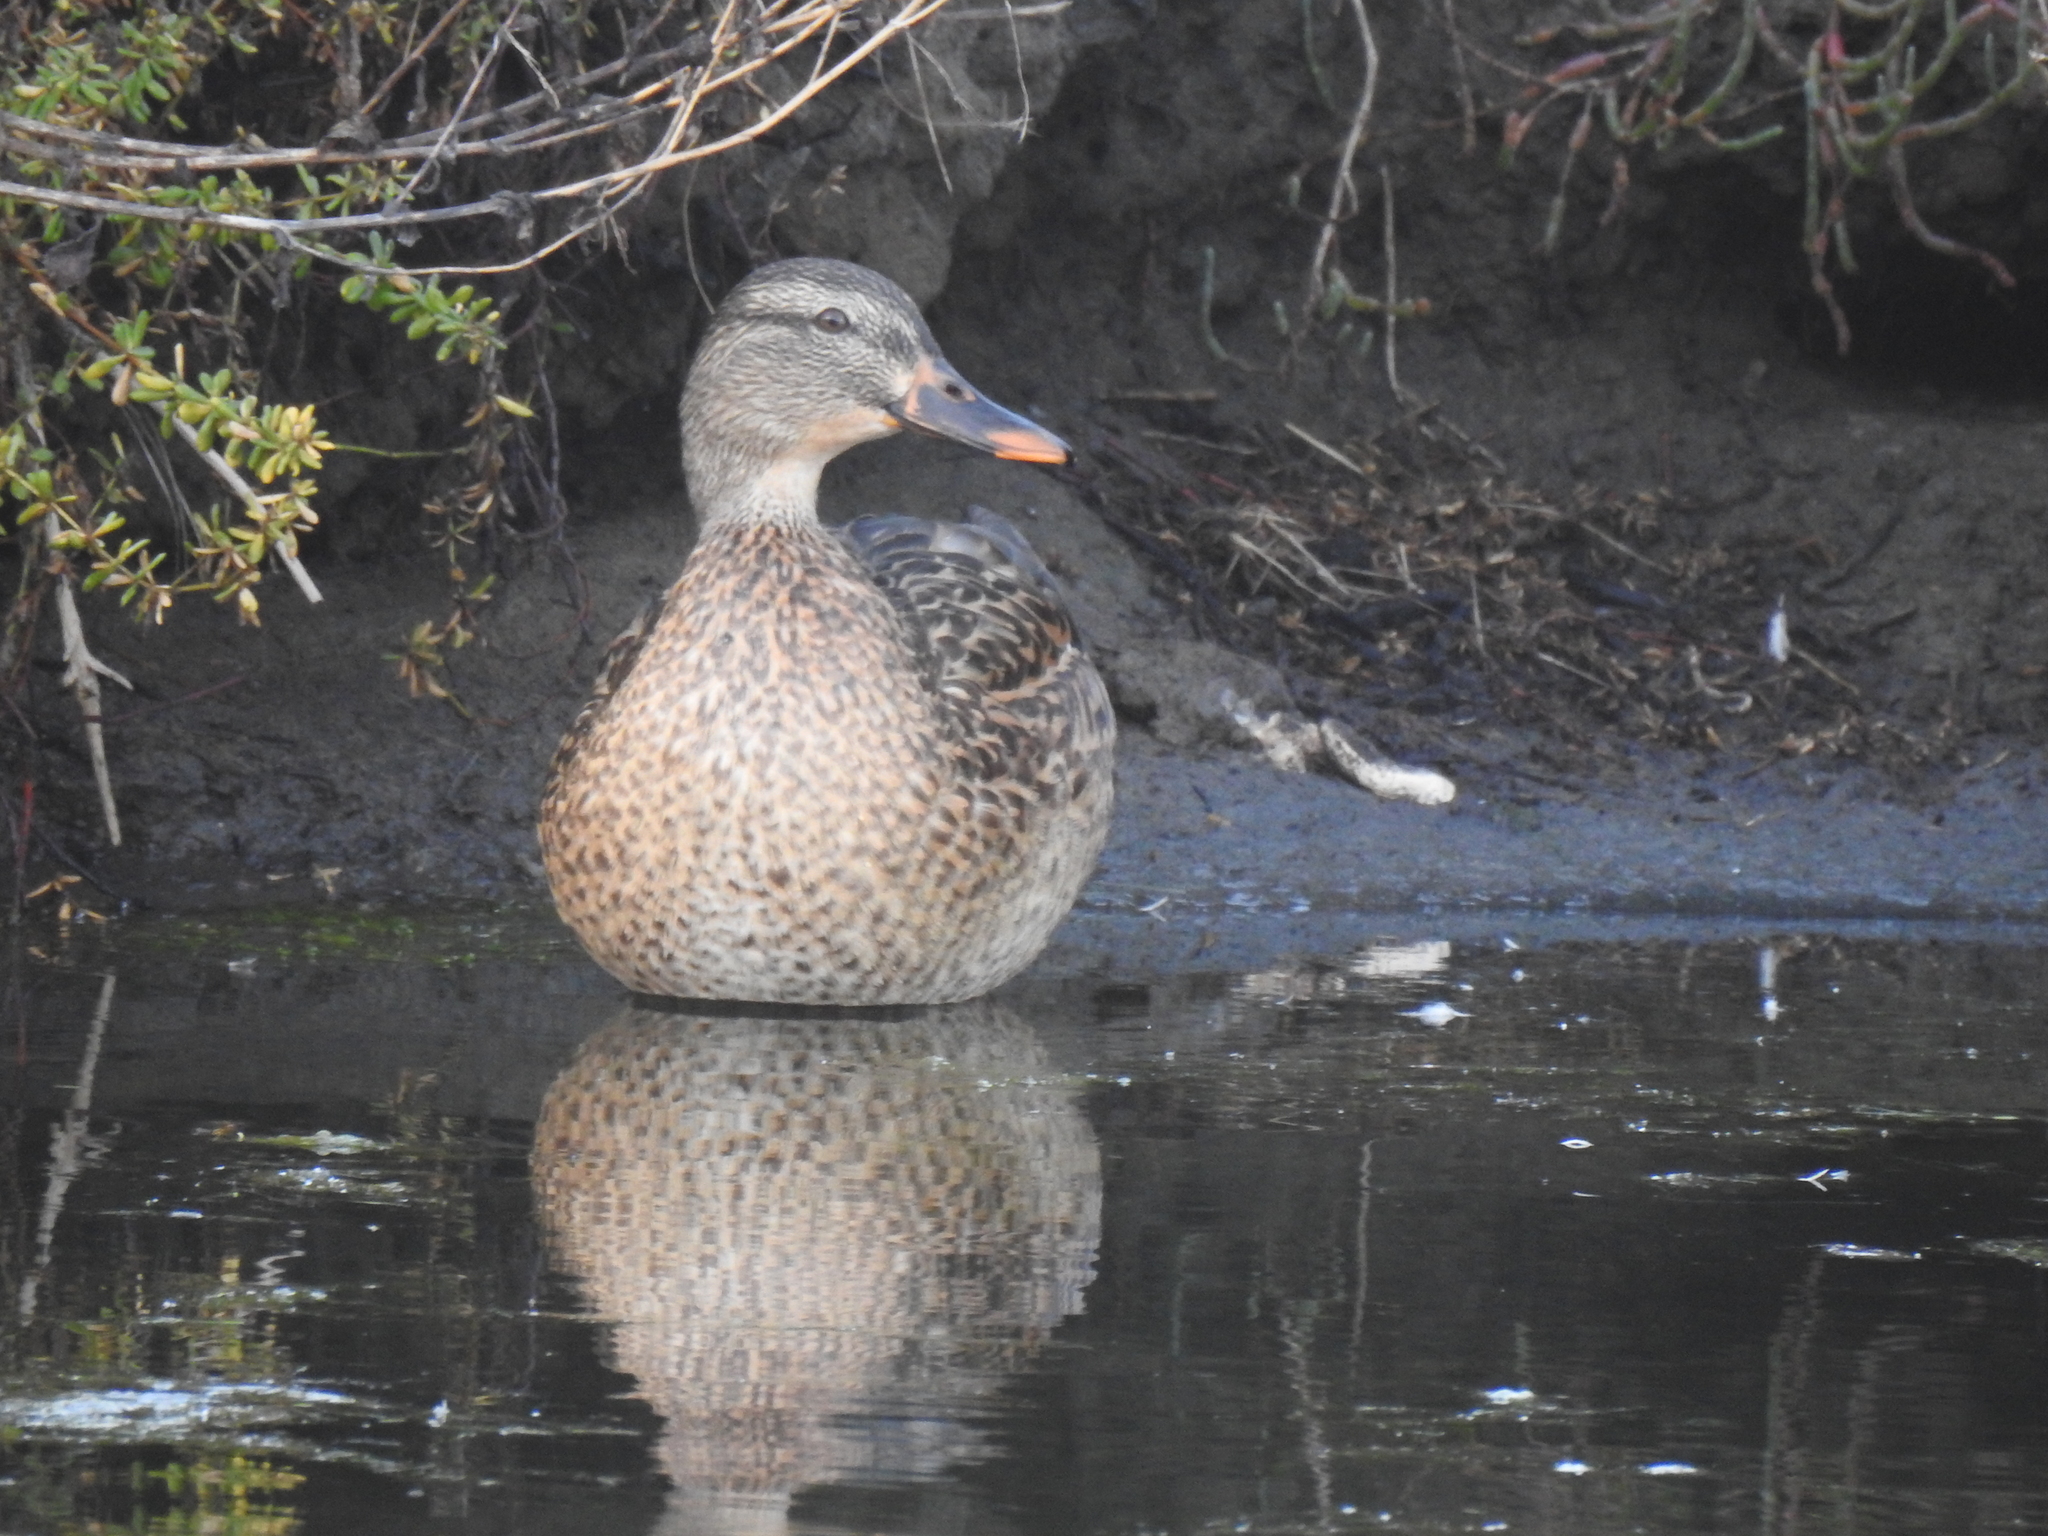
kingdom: Animalia
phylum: Chordata
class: Aves
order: Anseriformes
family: Anatidae
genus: Anas
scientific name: Anas platyrhynchos
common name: Mallard
